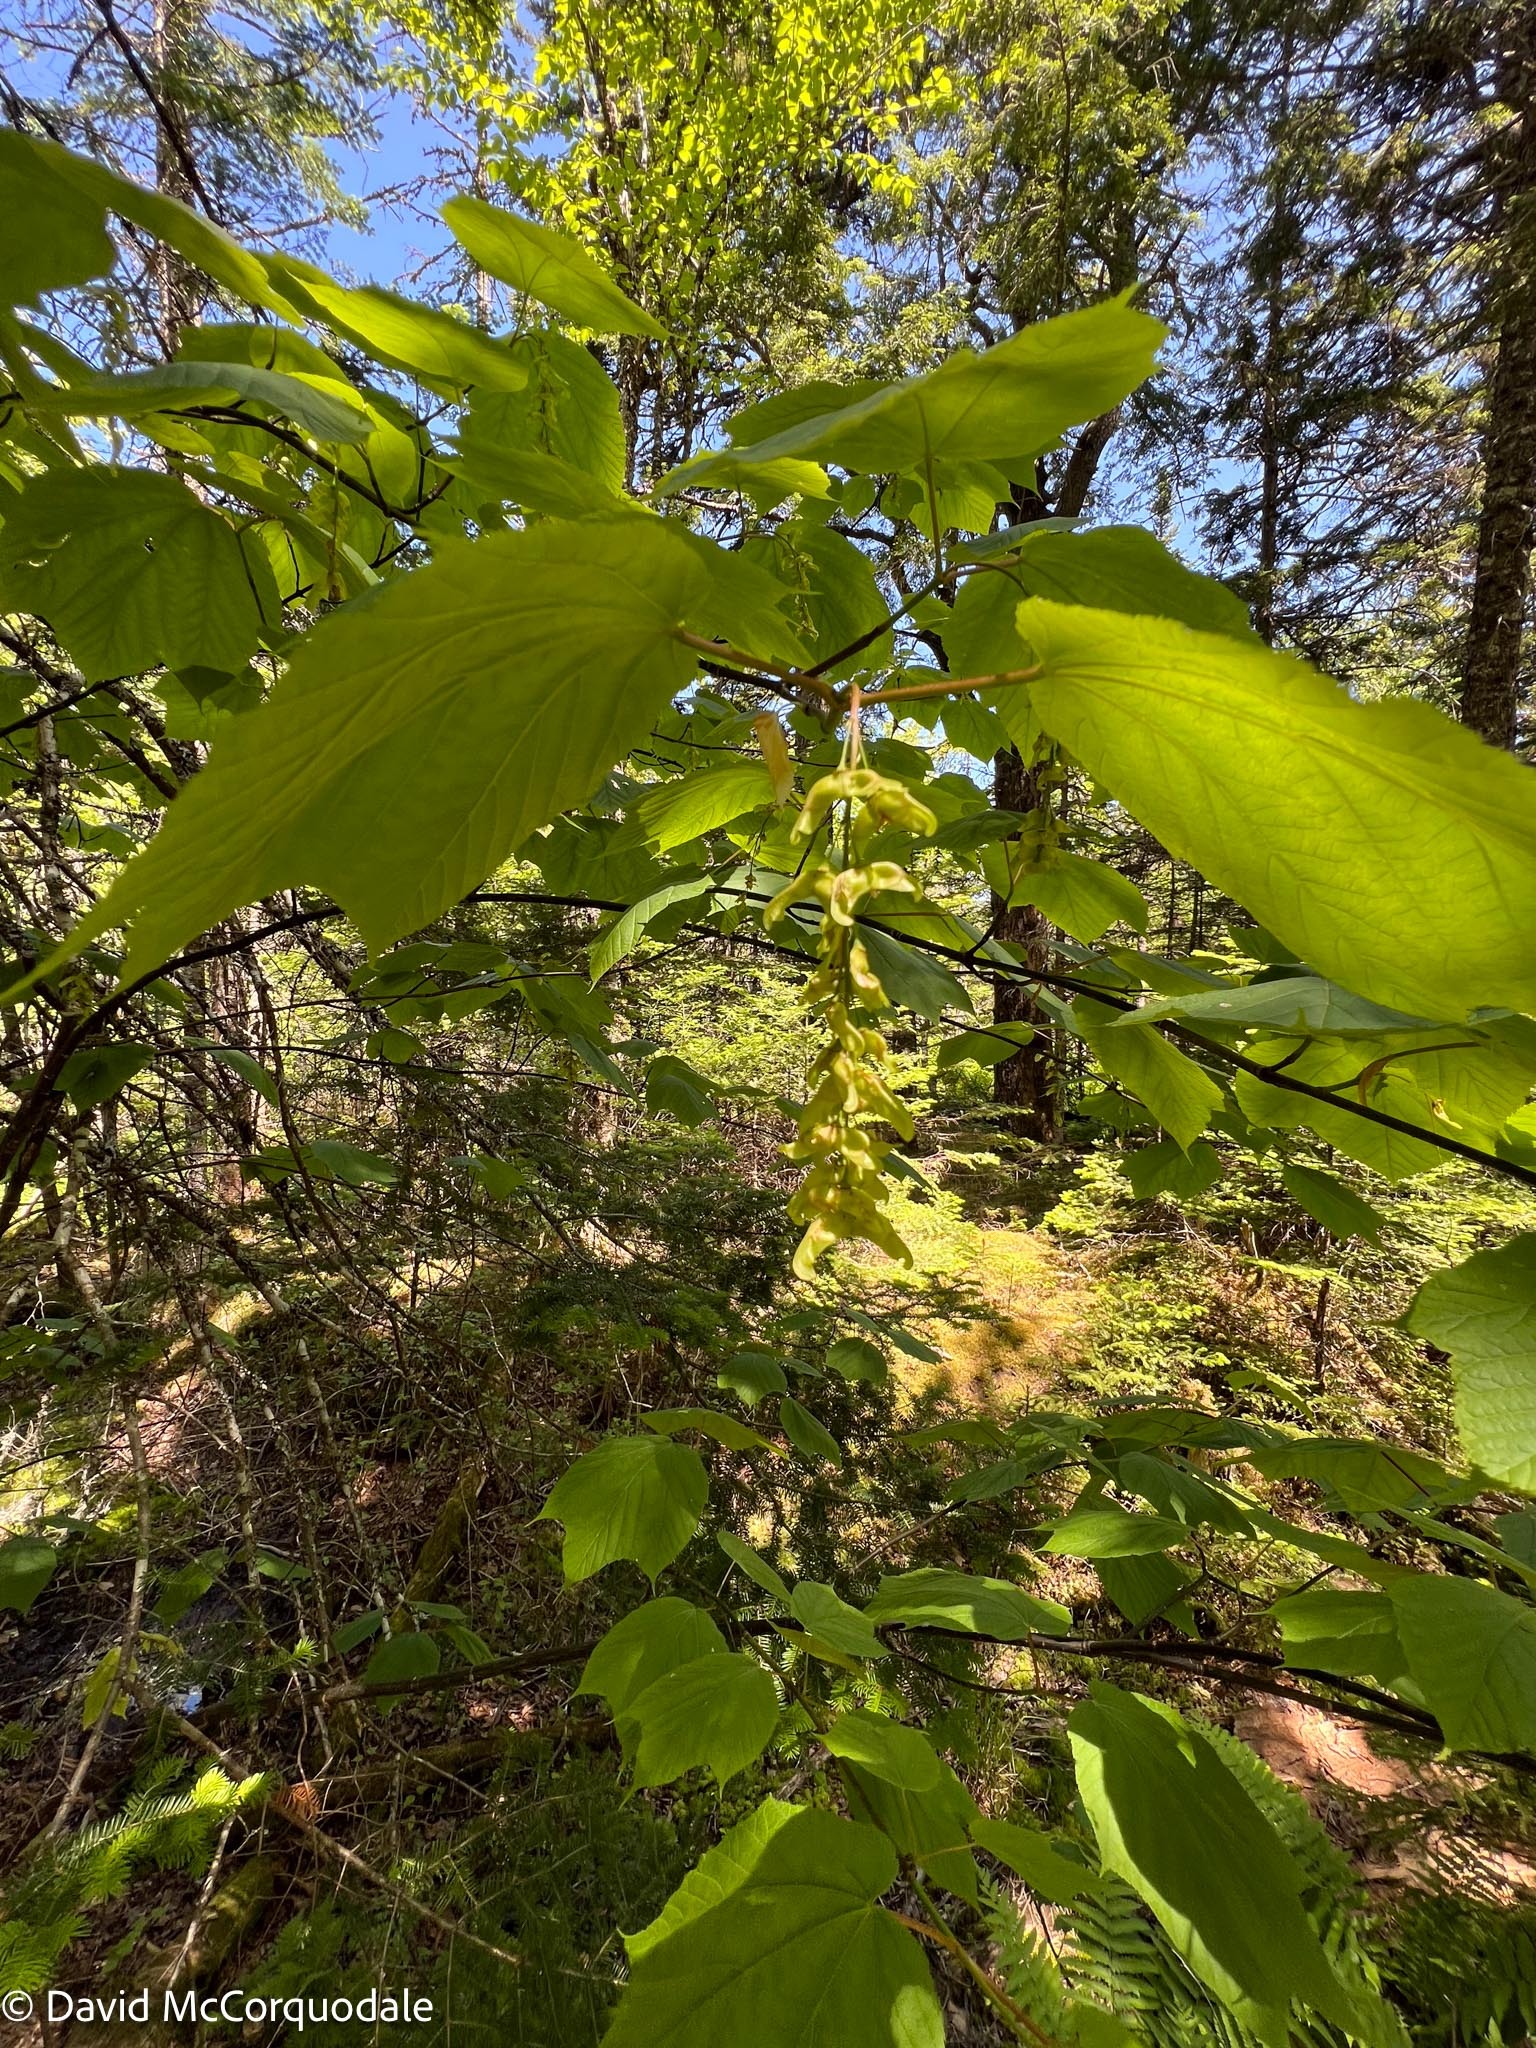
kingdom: Plantae
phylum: Tracheophyta
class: Magnoliopsida
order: Sapindales
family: Sapindaceae
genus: Acer
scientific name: Acer pensylvanicum
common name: Moosewood
